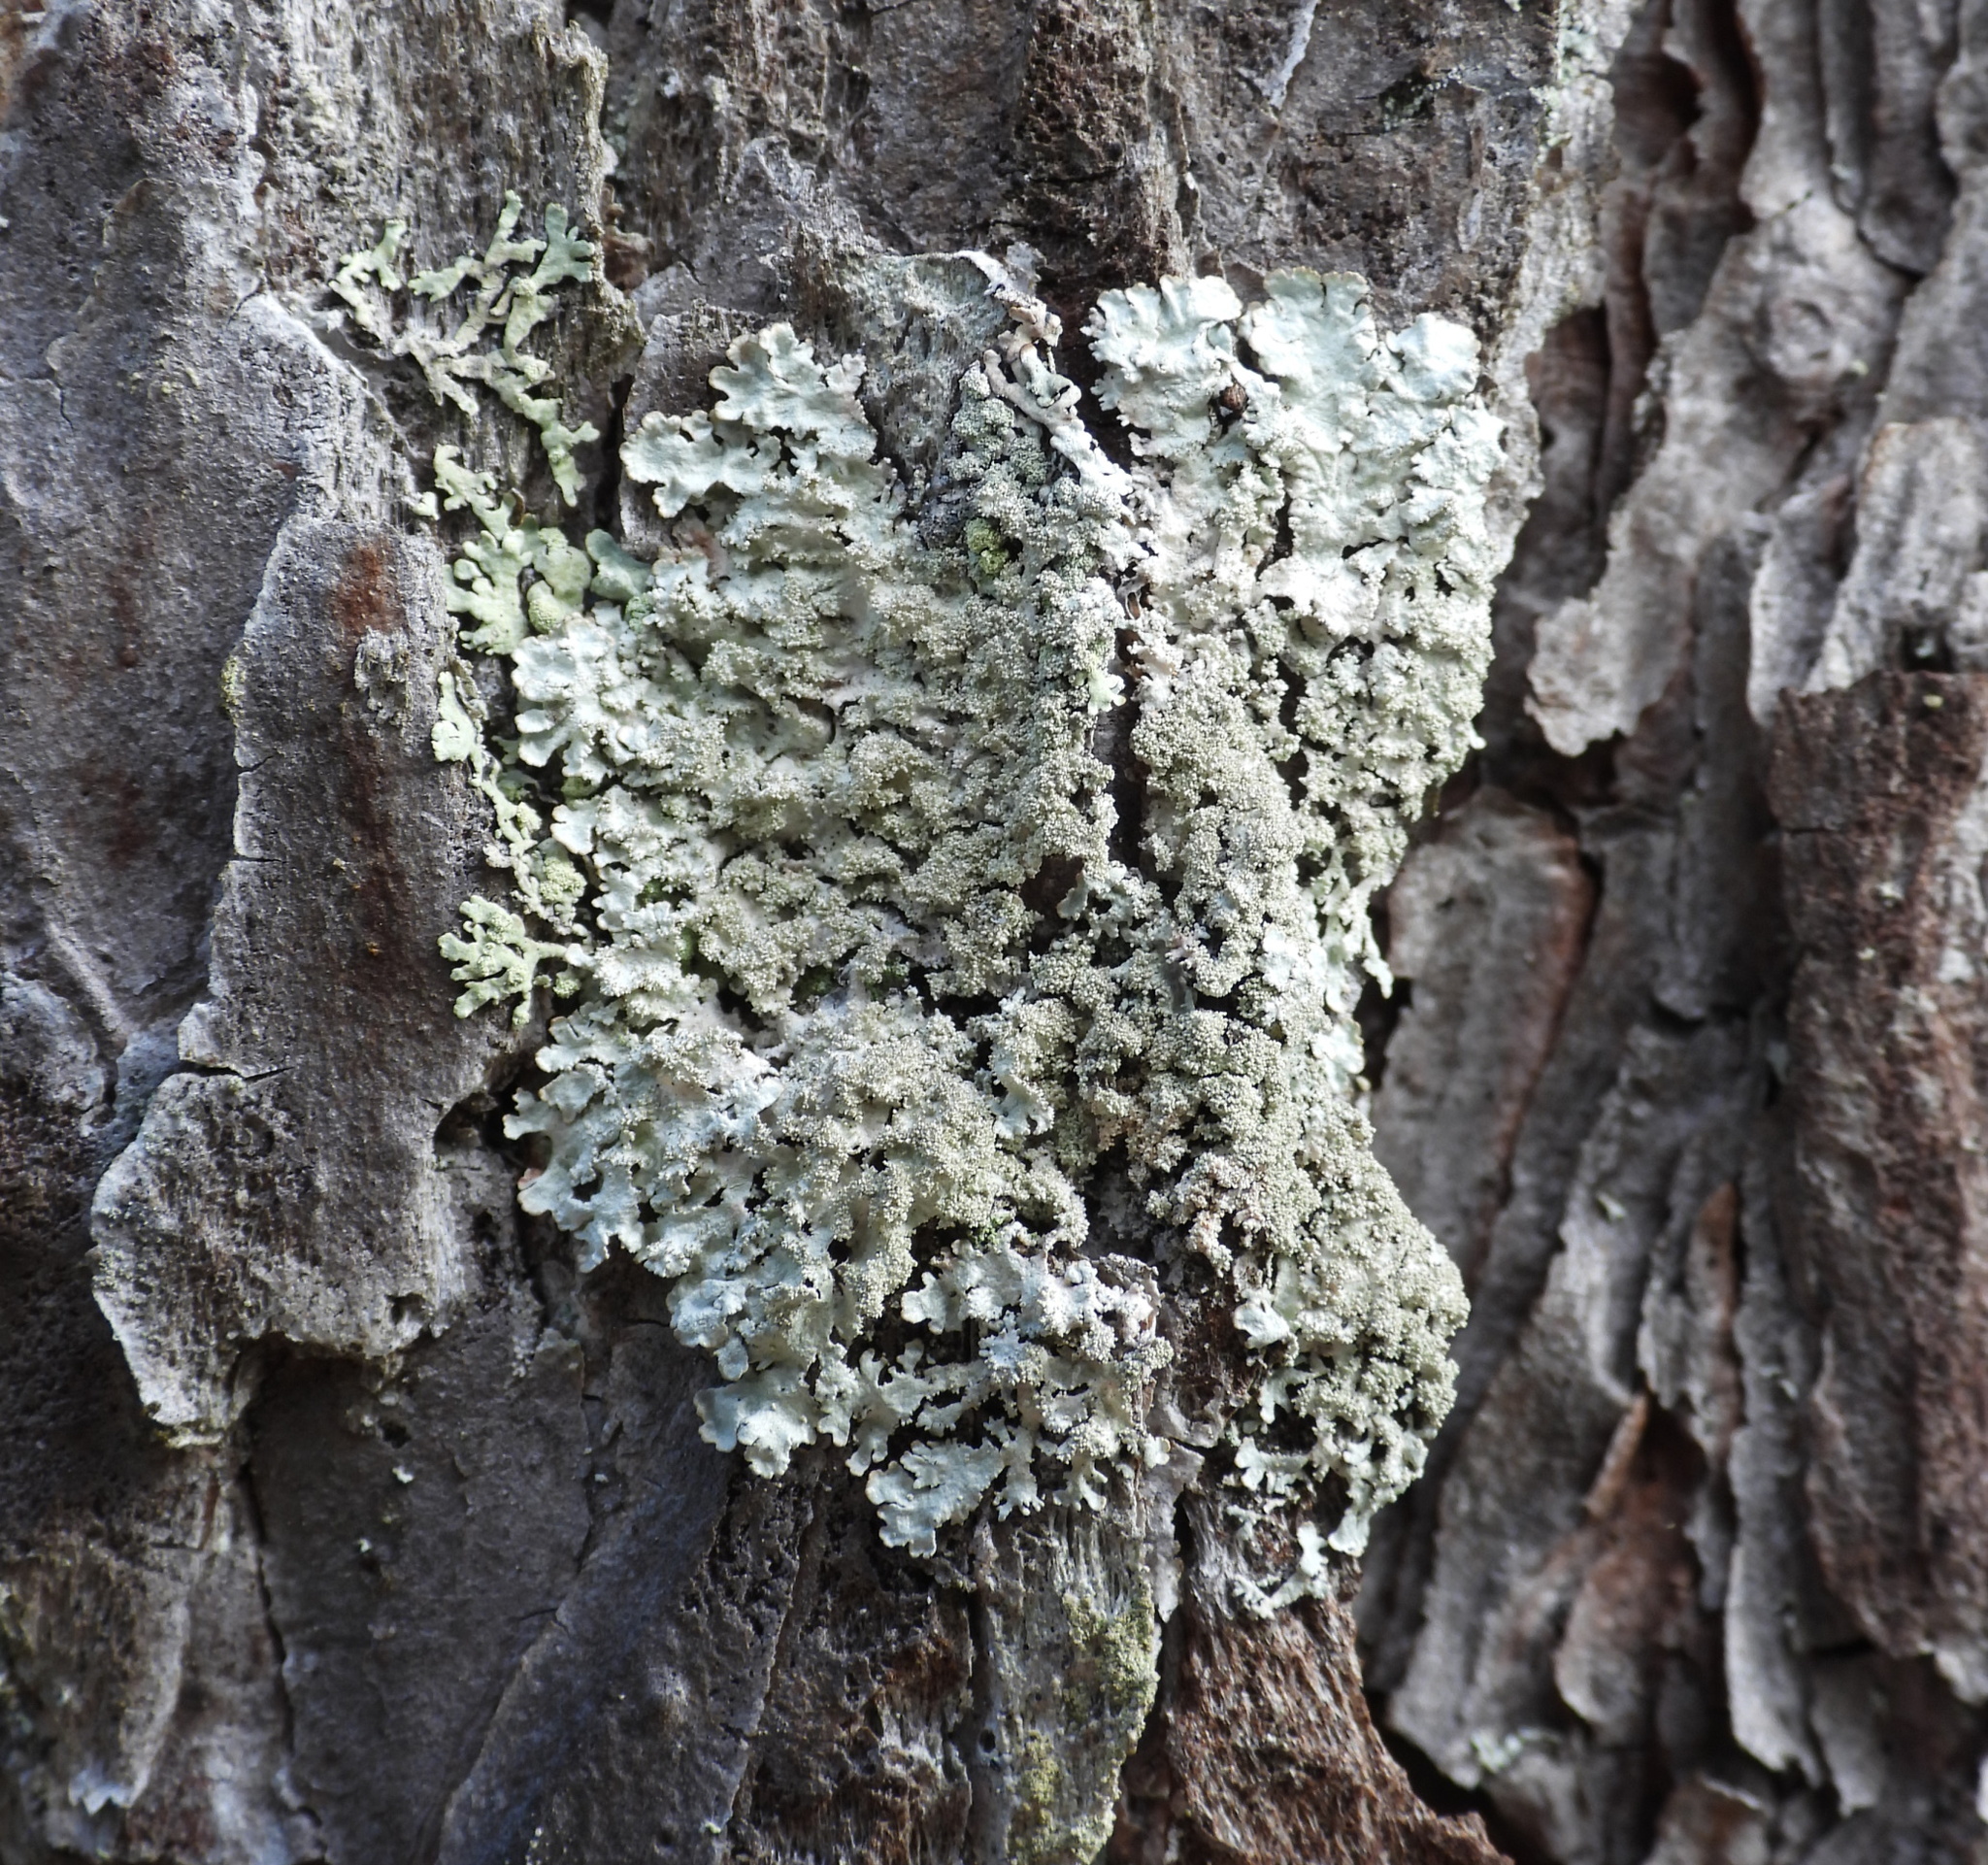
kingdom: Fungi
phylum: Ascomycota
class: Lecanoromycetes
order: Lecanorales
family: Parmeliaceae
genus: Imshaugia
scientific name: Imshaugia aleurites
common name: Salted starburst lichen
